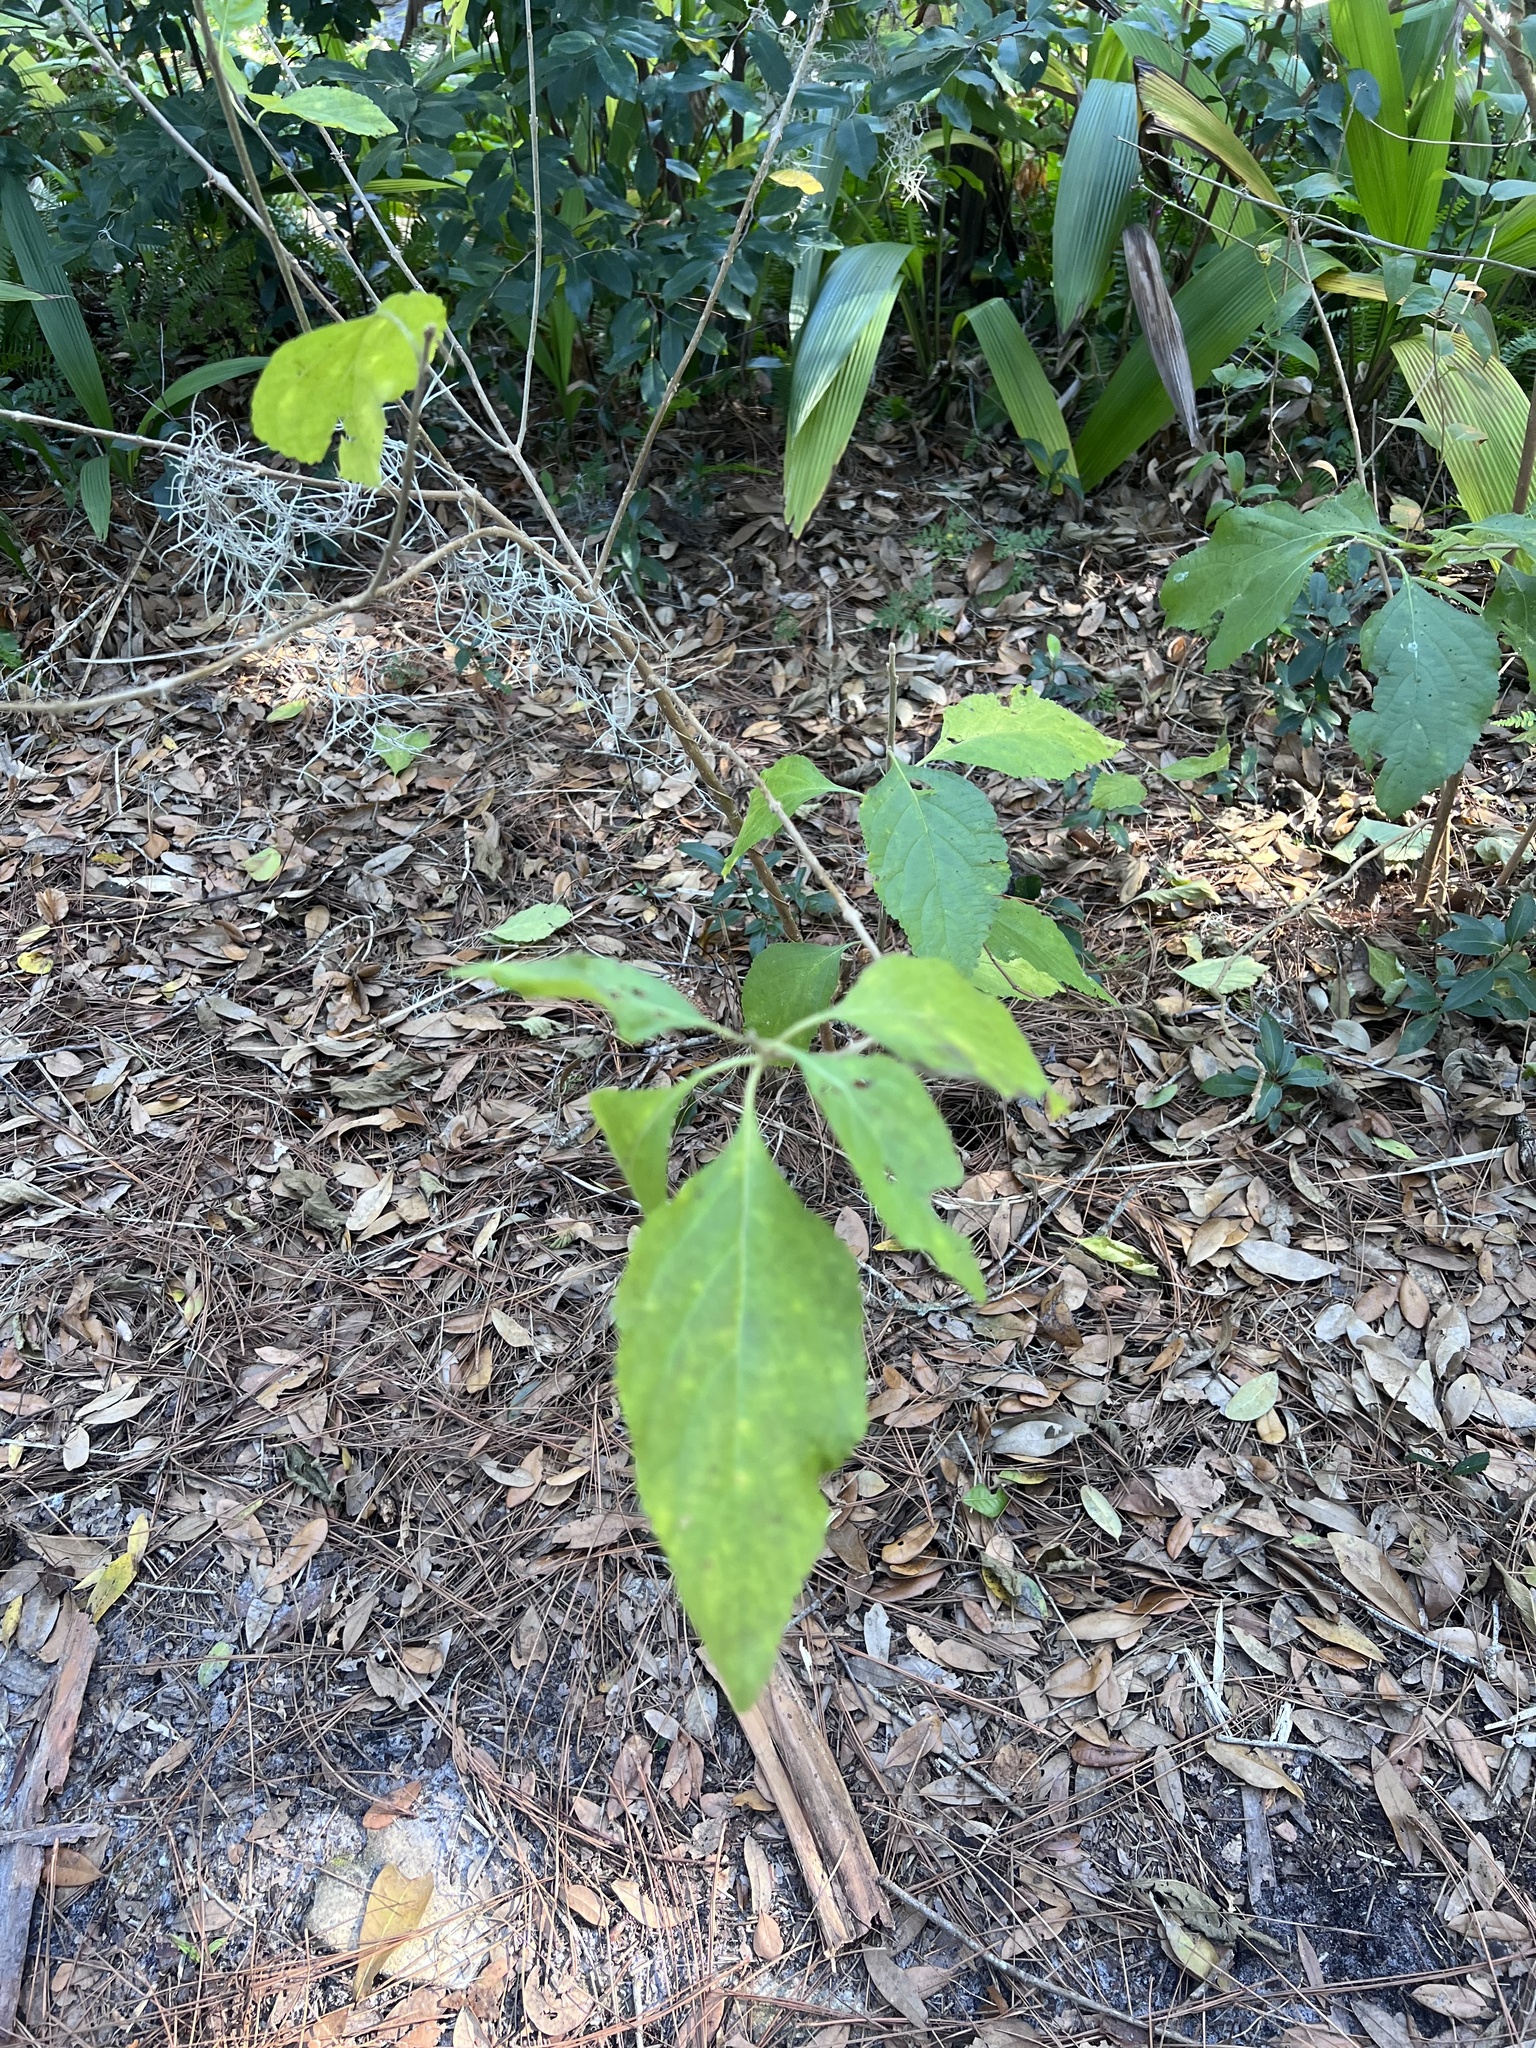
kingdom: Plantae
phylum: Tracheophyta
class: Magnoliopsida
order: Lamiales
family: Lamiaceae
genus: Callicarpa
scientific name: Callicarpa americana
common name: American beautyberry
